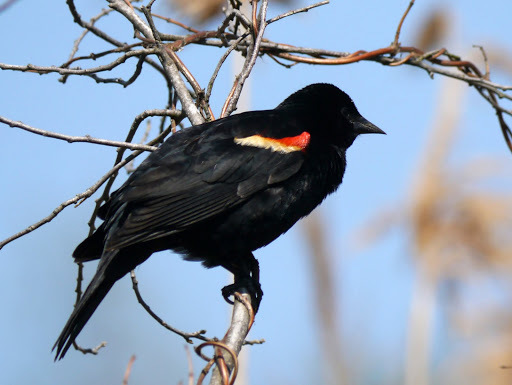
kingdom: Animalia
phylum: Chordata
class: Aves
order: Passeriformes
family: Icteridae
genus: Agelaius
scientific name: Agelaius phoeniceus
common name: Red-winged blackbird
